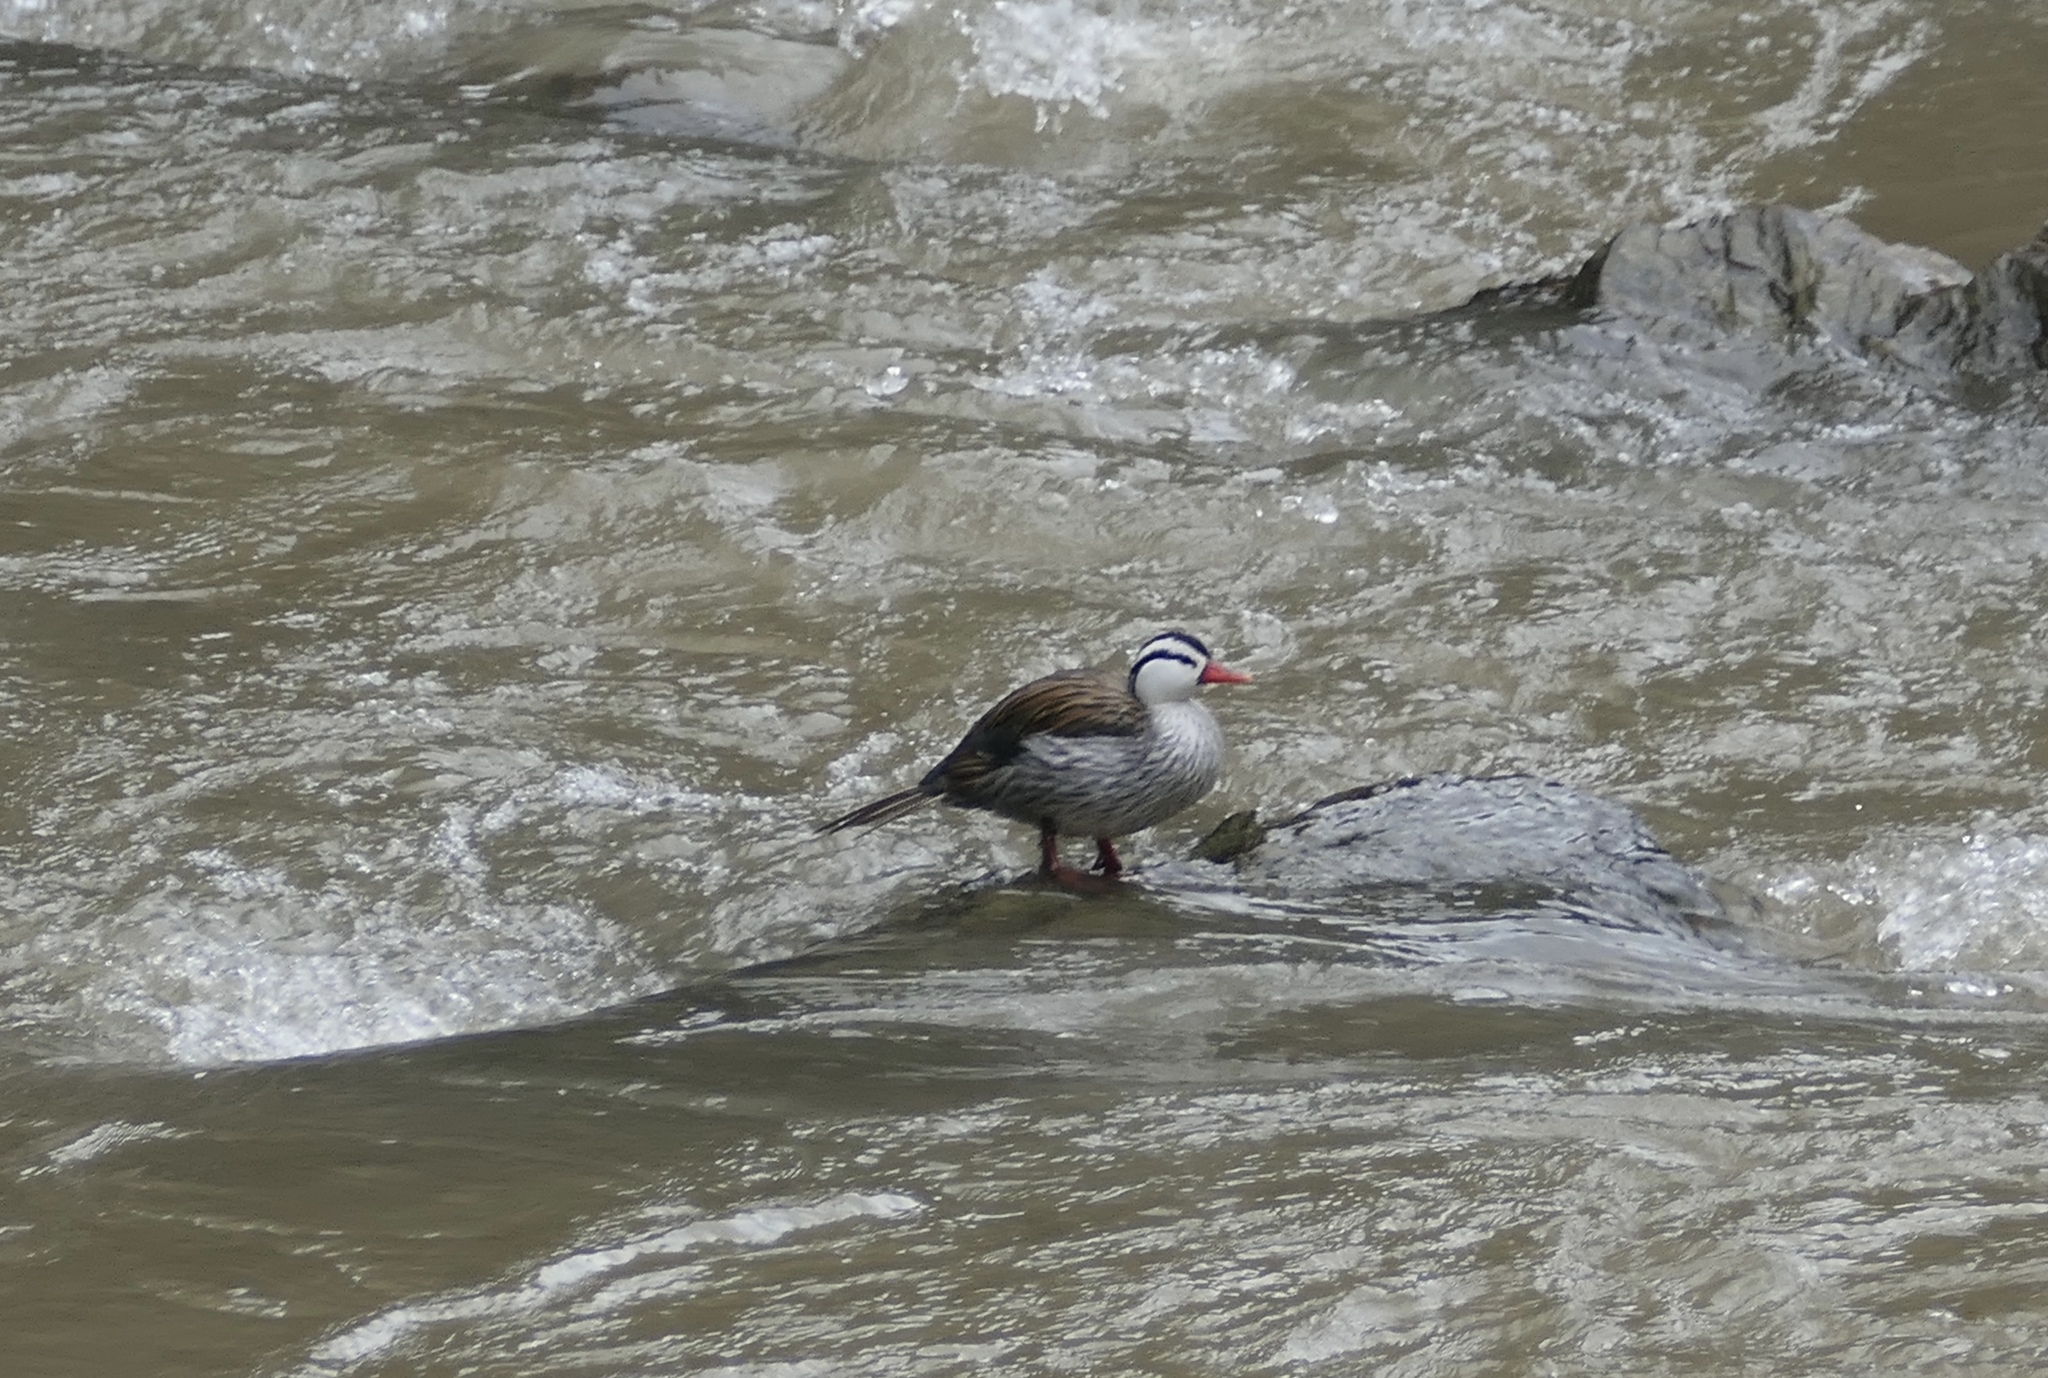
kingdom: Animalia
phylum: Chordata
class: Aves
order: Anseriformes
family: Anatidae
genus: Merganetta
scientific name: Merganetta armata
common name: Torrent duck
